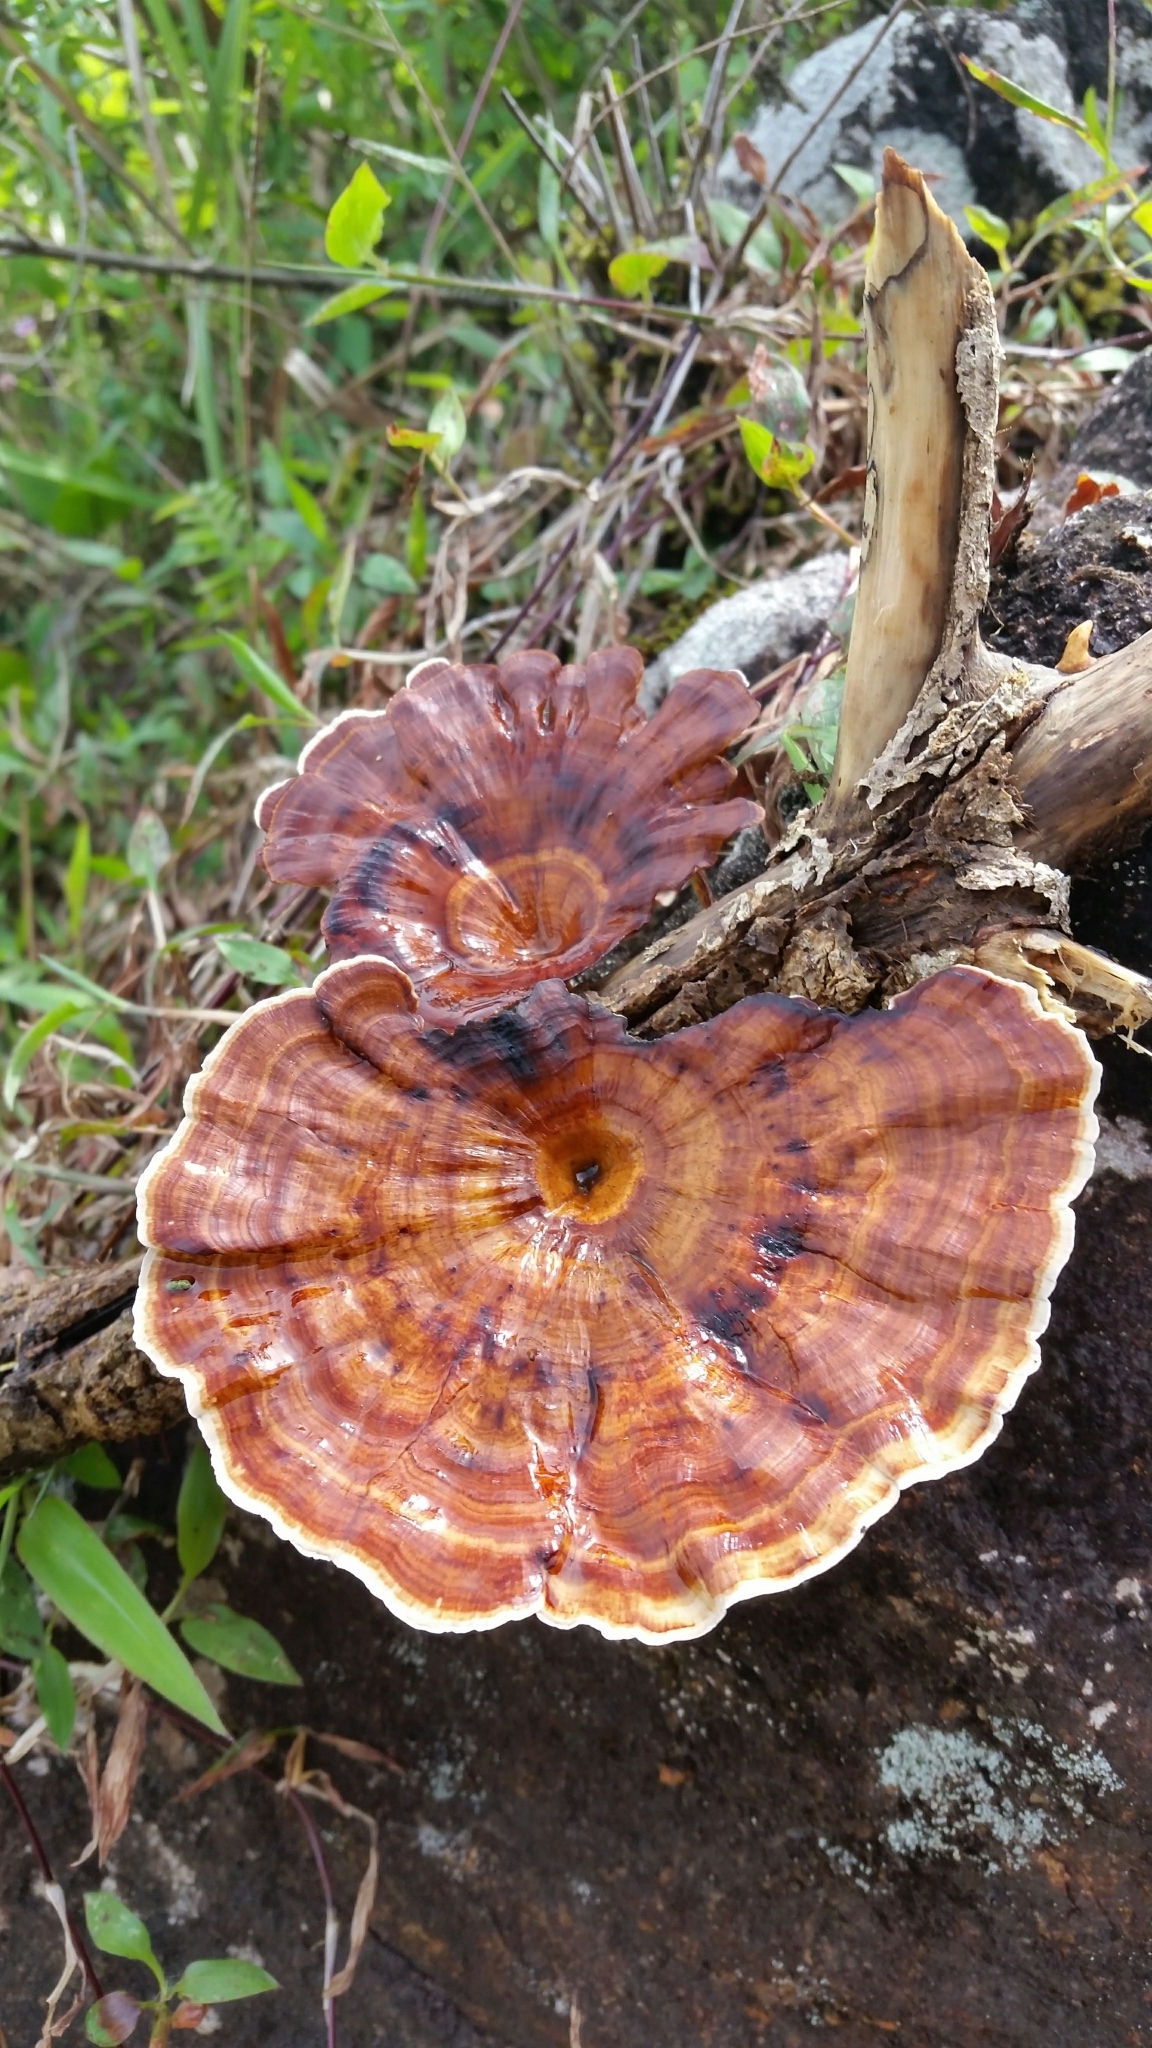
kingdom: Fungi
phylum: Basidiomycota
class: Agaricomycetes
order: Polyporales
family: Polyporaceae
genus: Microporus
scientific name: Microporus xanthopus
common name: Yellow-stemmed micropore
